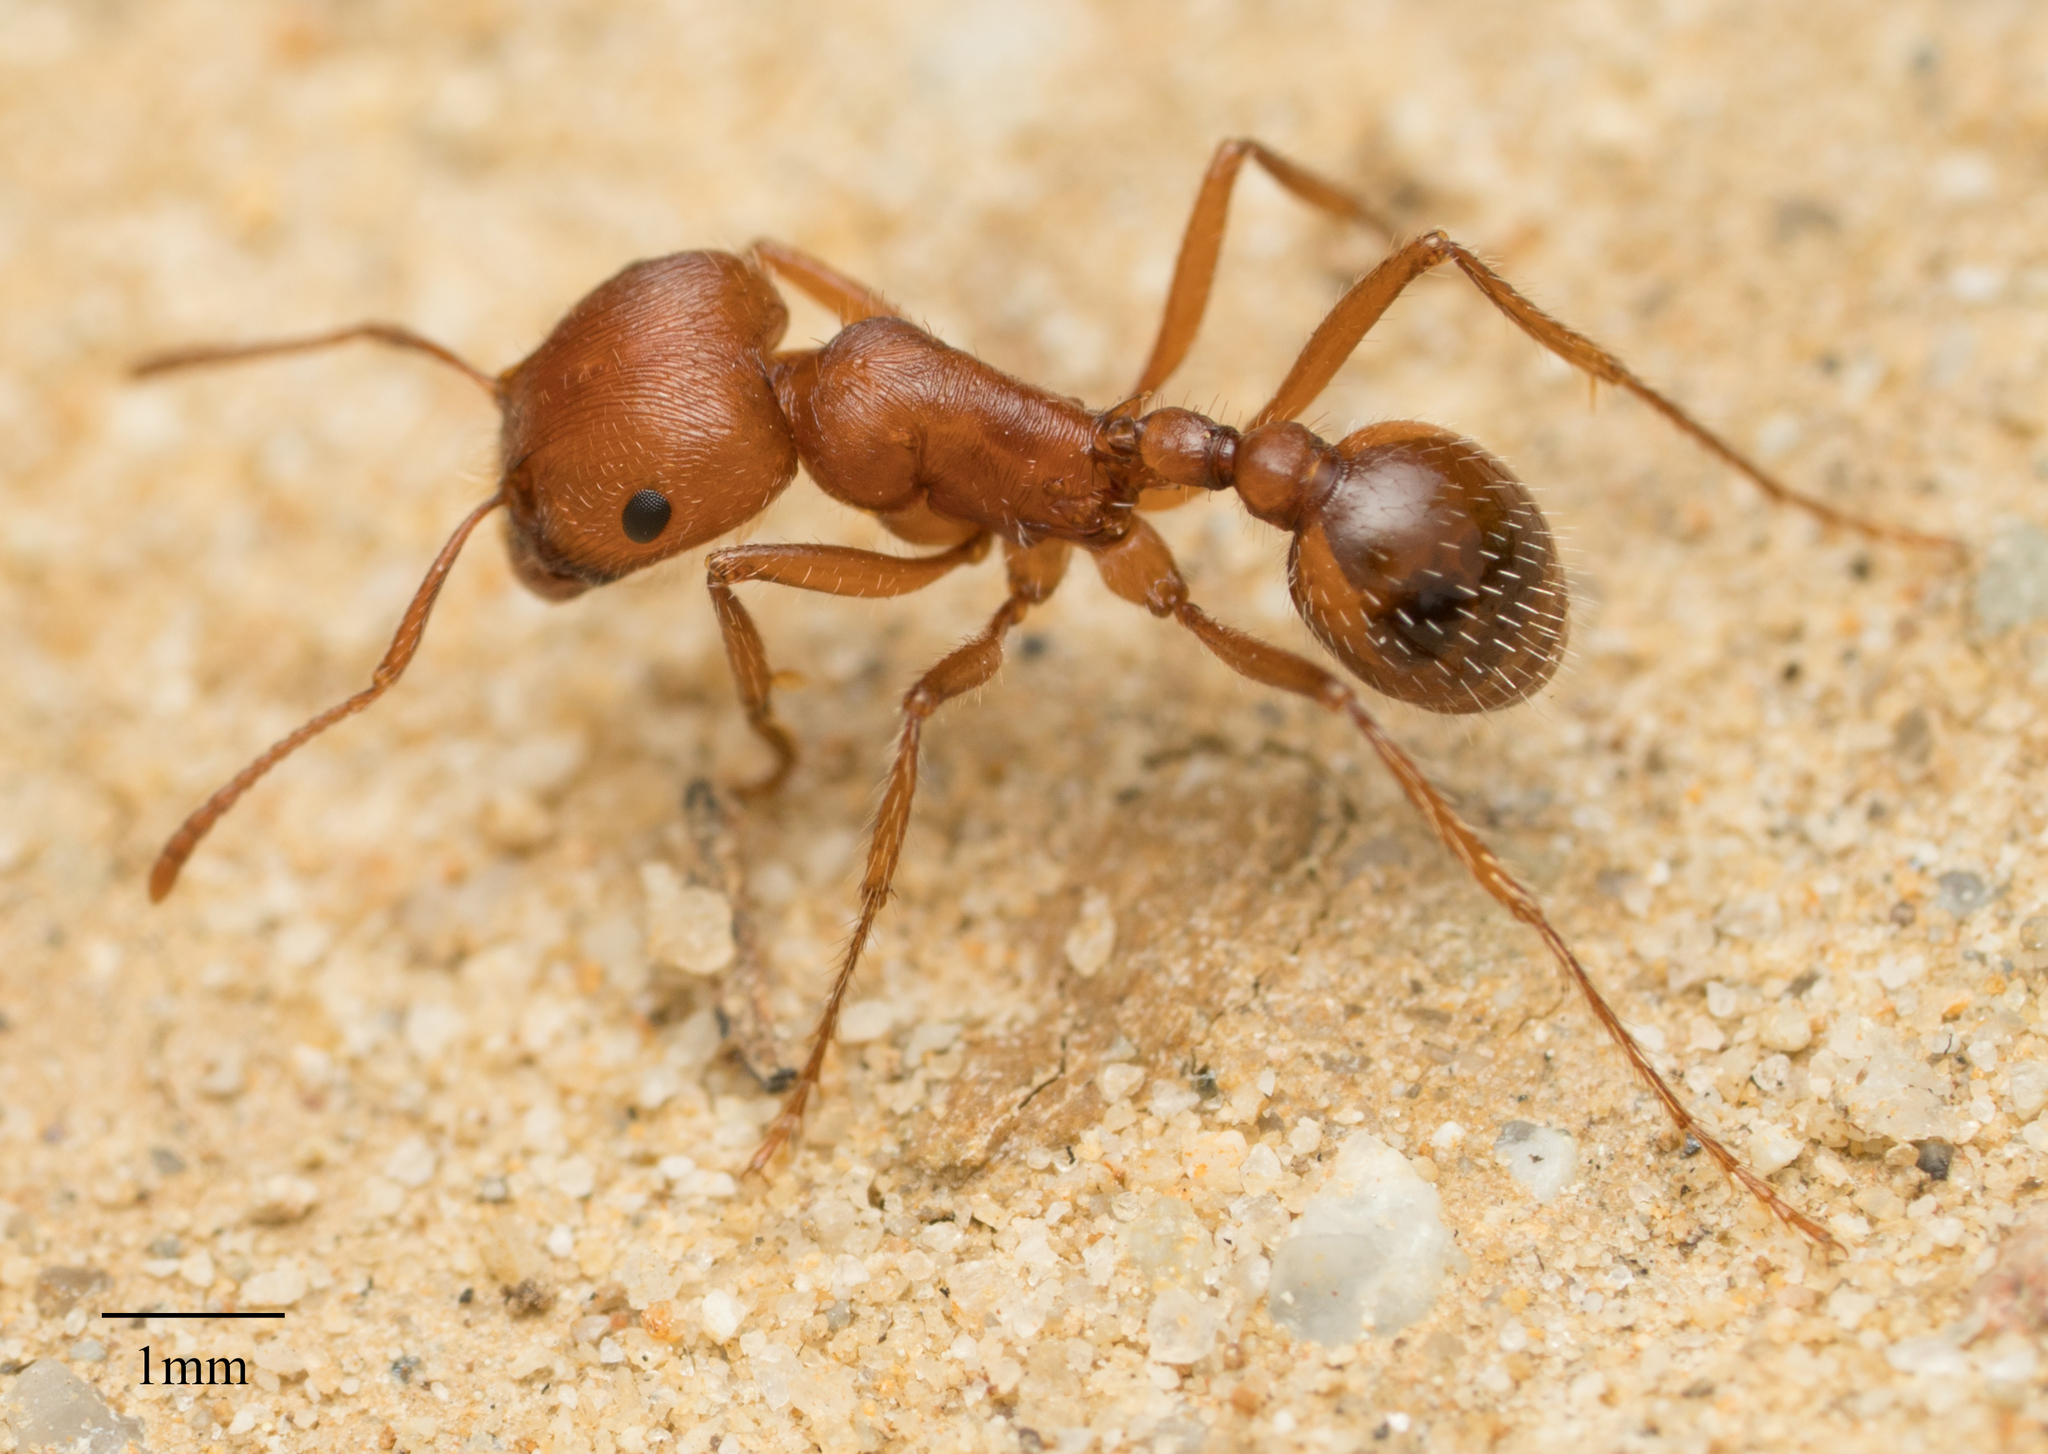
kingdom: Animalia
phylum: Arthropoda
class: Insecta
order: Hymenoptera
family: Formicidae
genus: Pogonomyrmex
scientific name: Pogonomyrmex subnitidus
